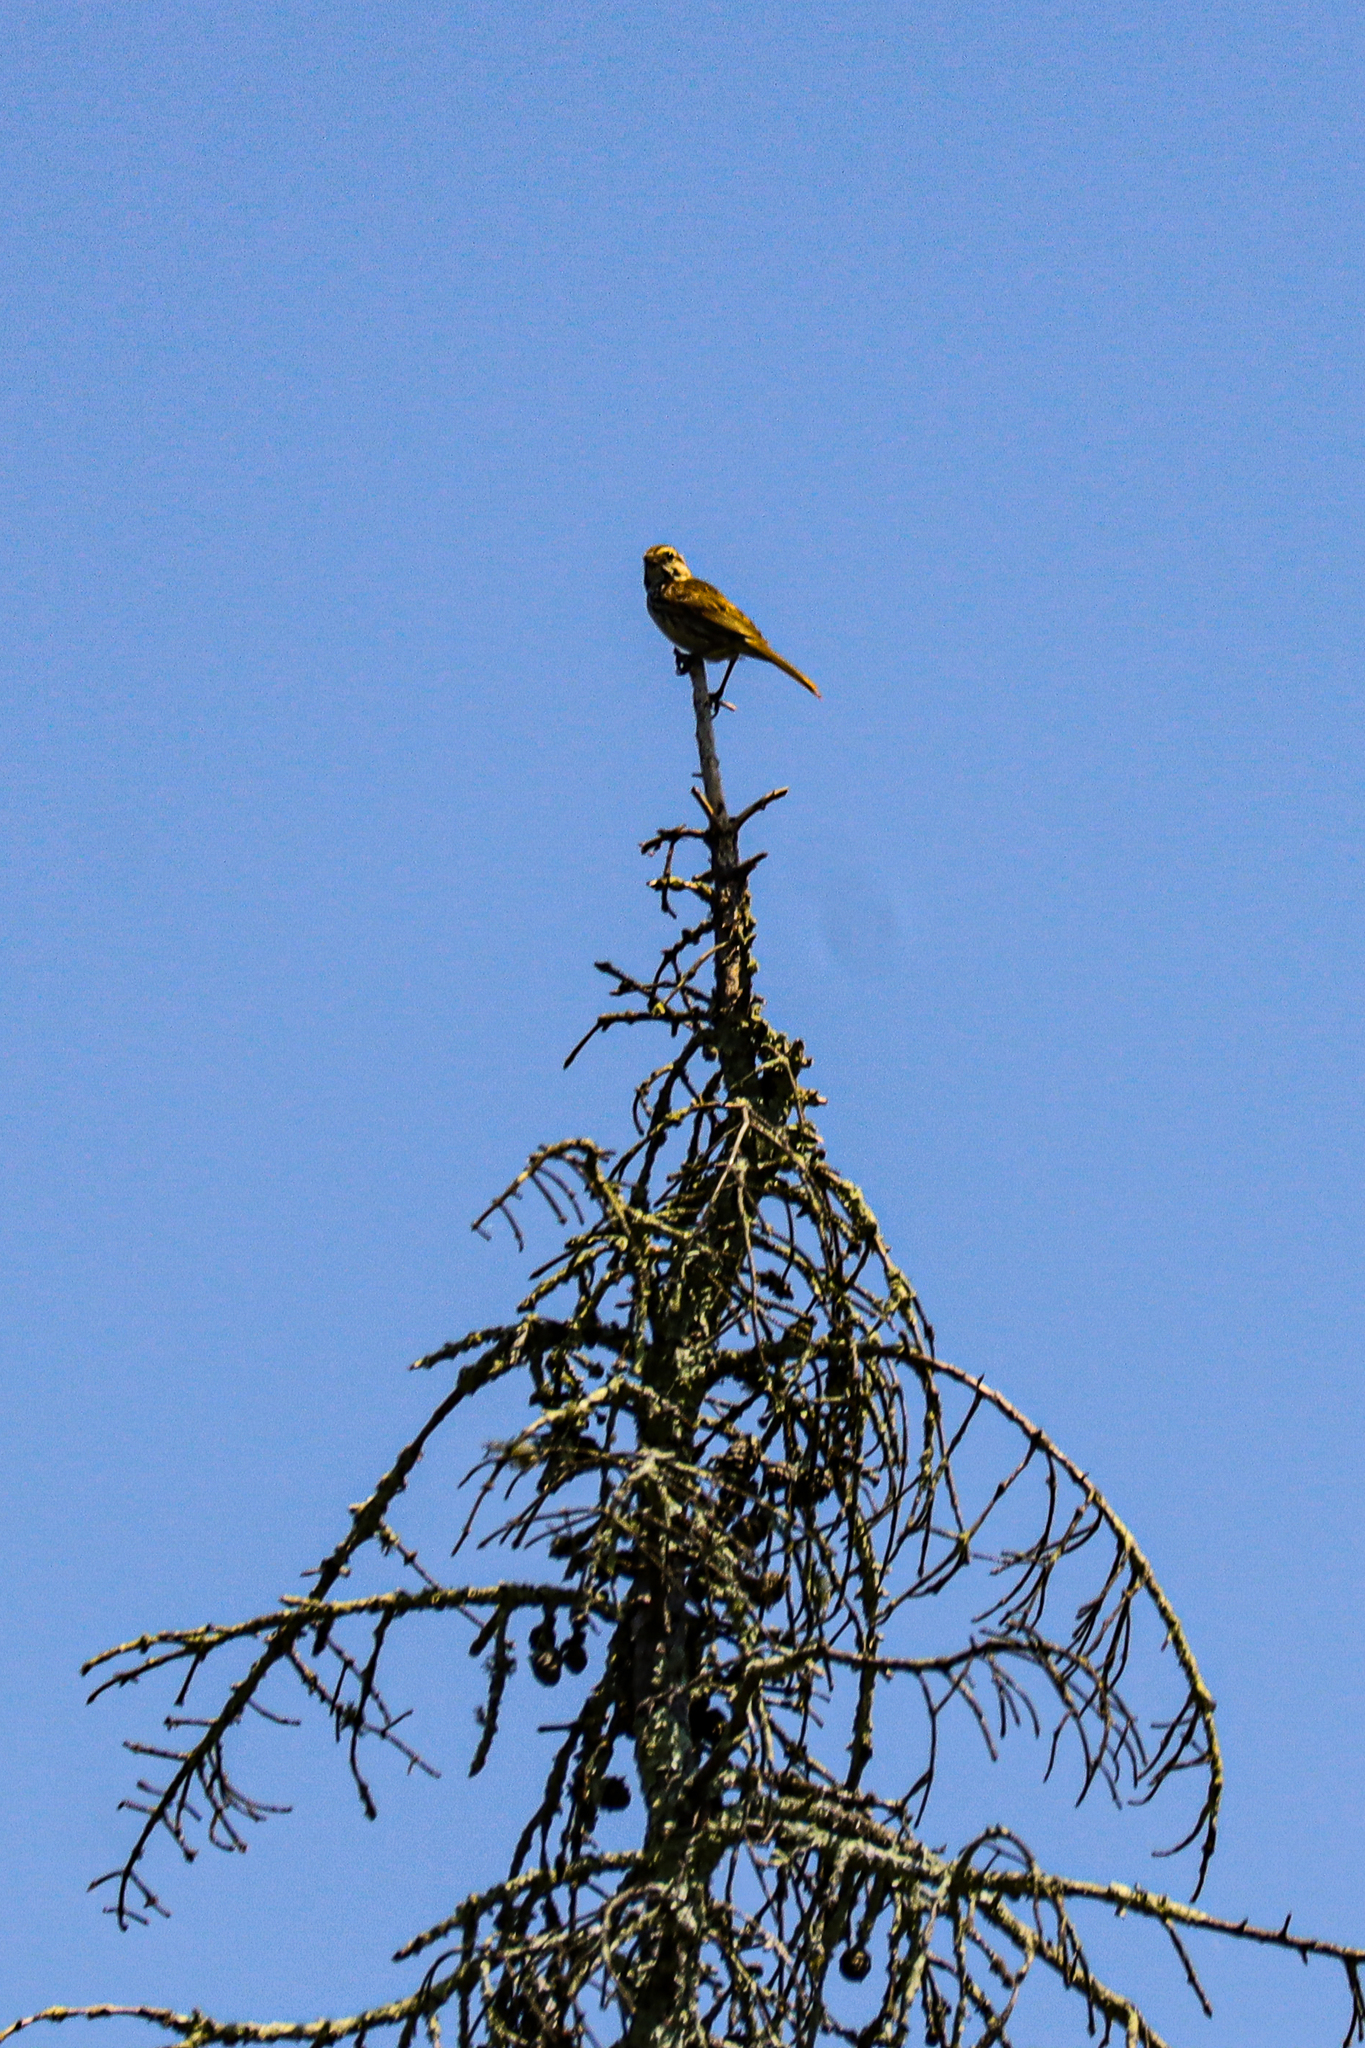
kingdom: Animalia
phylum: Chordata
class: Aves
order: Passeriformes
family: Passerellidae
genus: Melospiza
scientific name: Melospiza melodia
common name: Song sparrow
